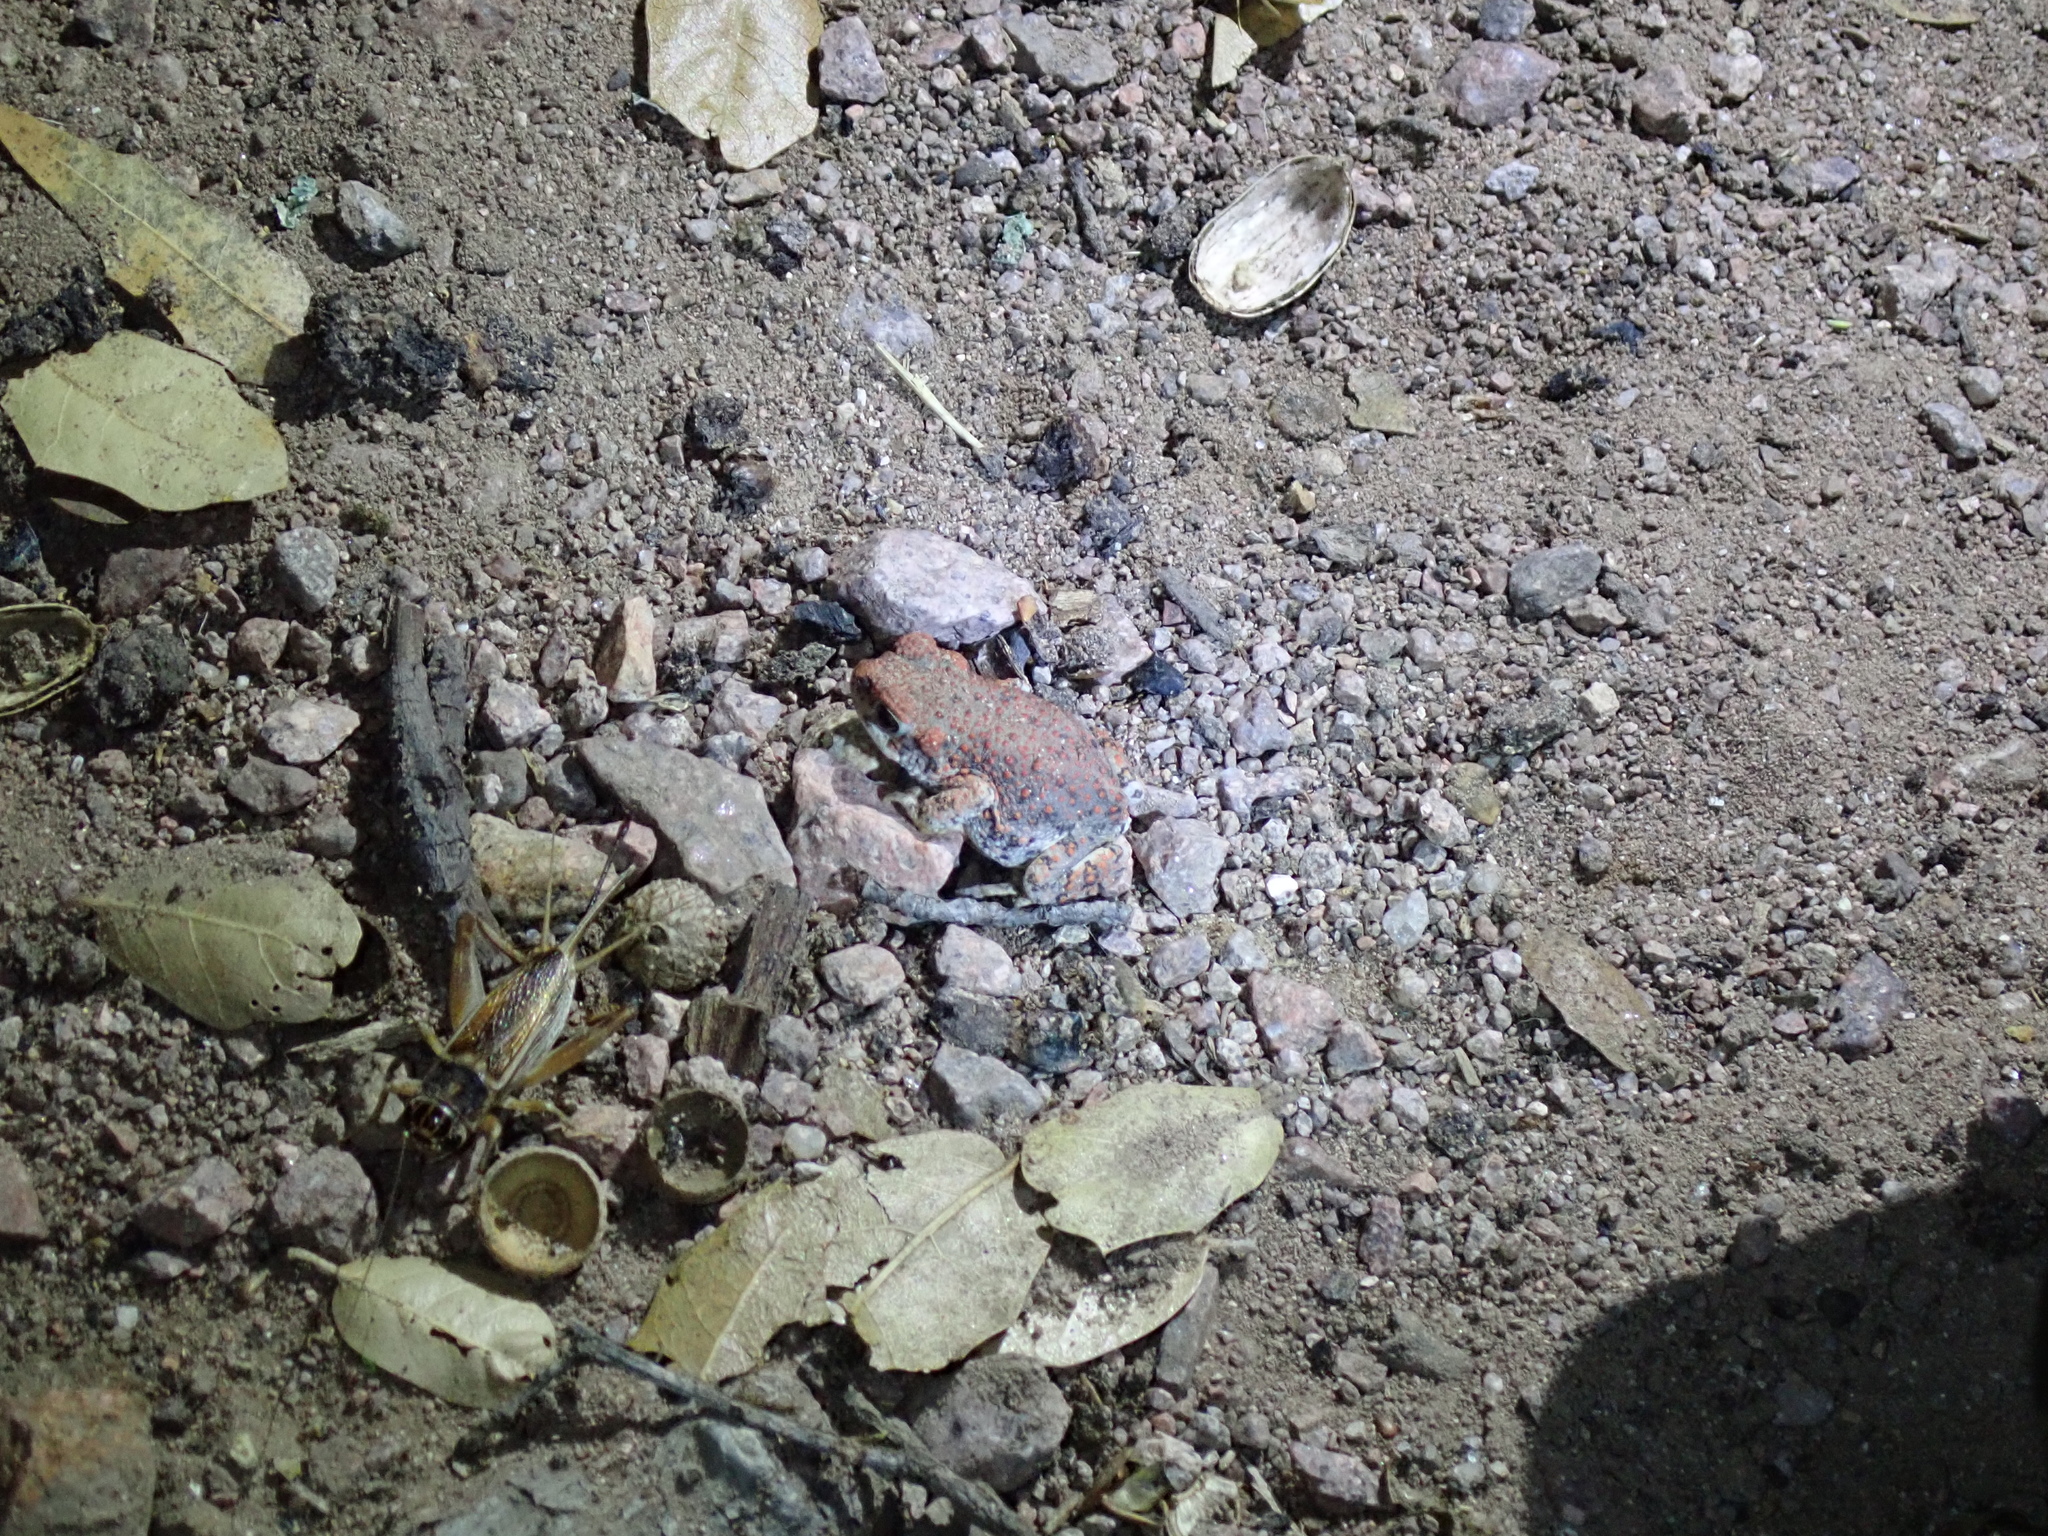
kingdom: Animalia
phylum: Chordata
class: Amphibia
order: Anura
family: Bufonidae
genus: Anaxyrus
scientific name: Anaxyrus punctatus
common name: Red-spotted toad
